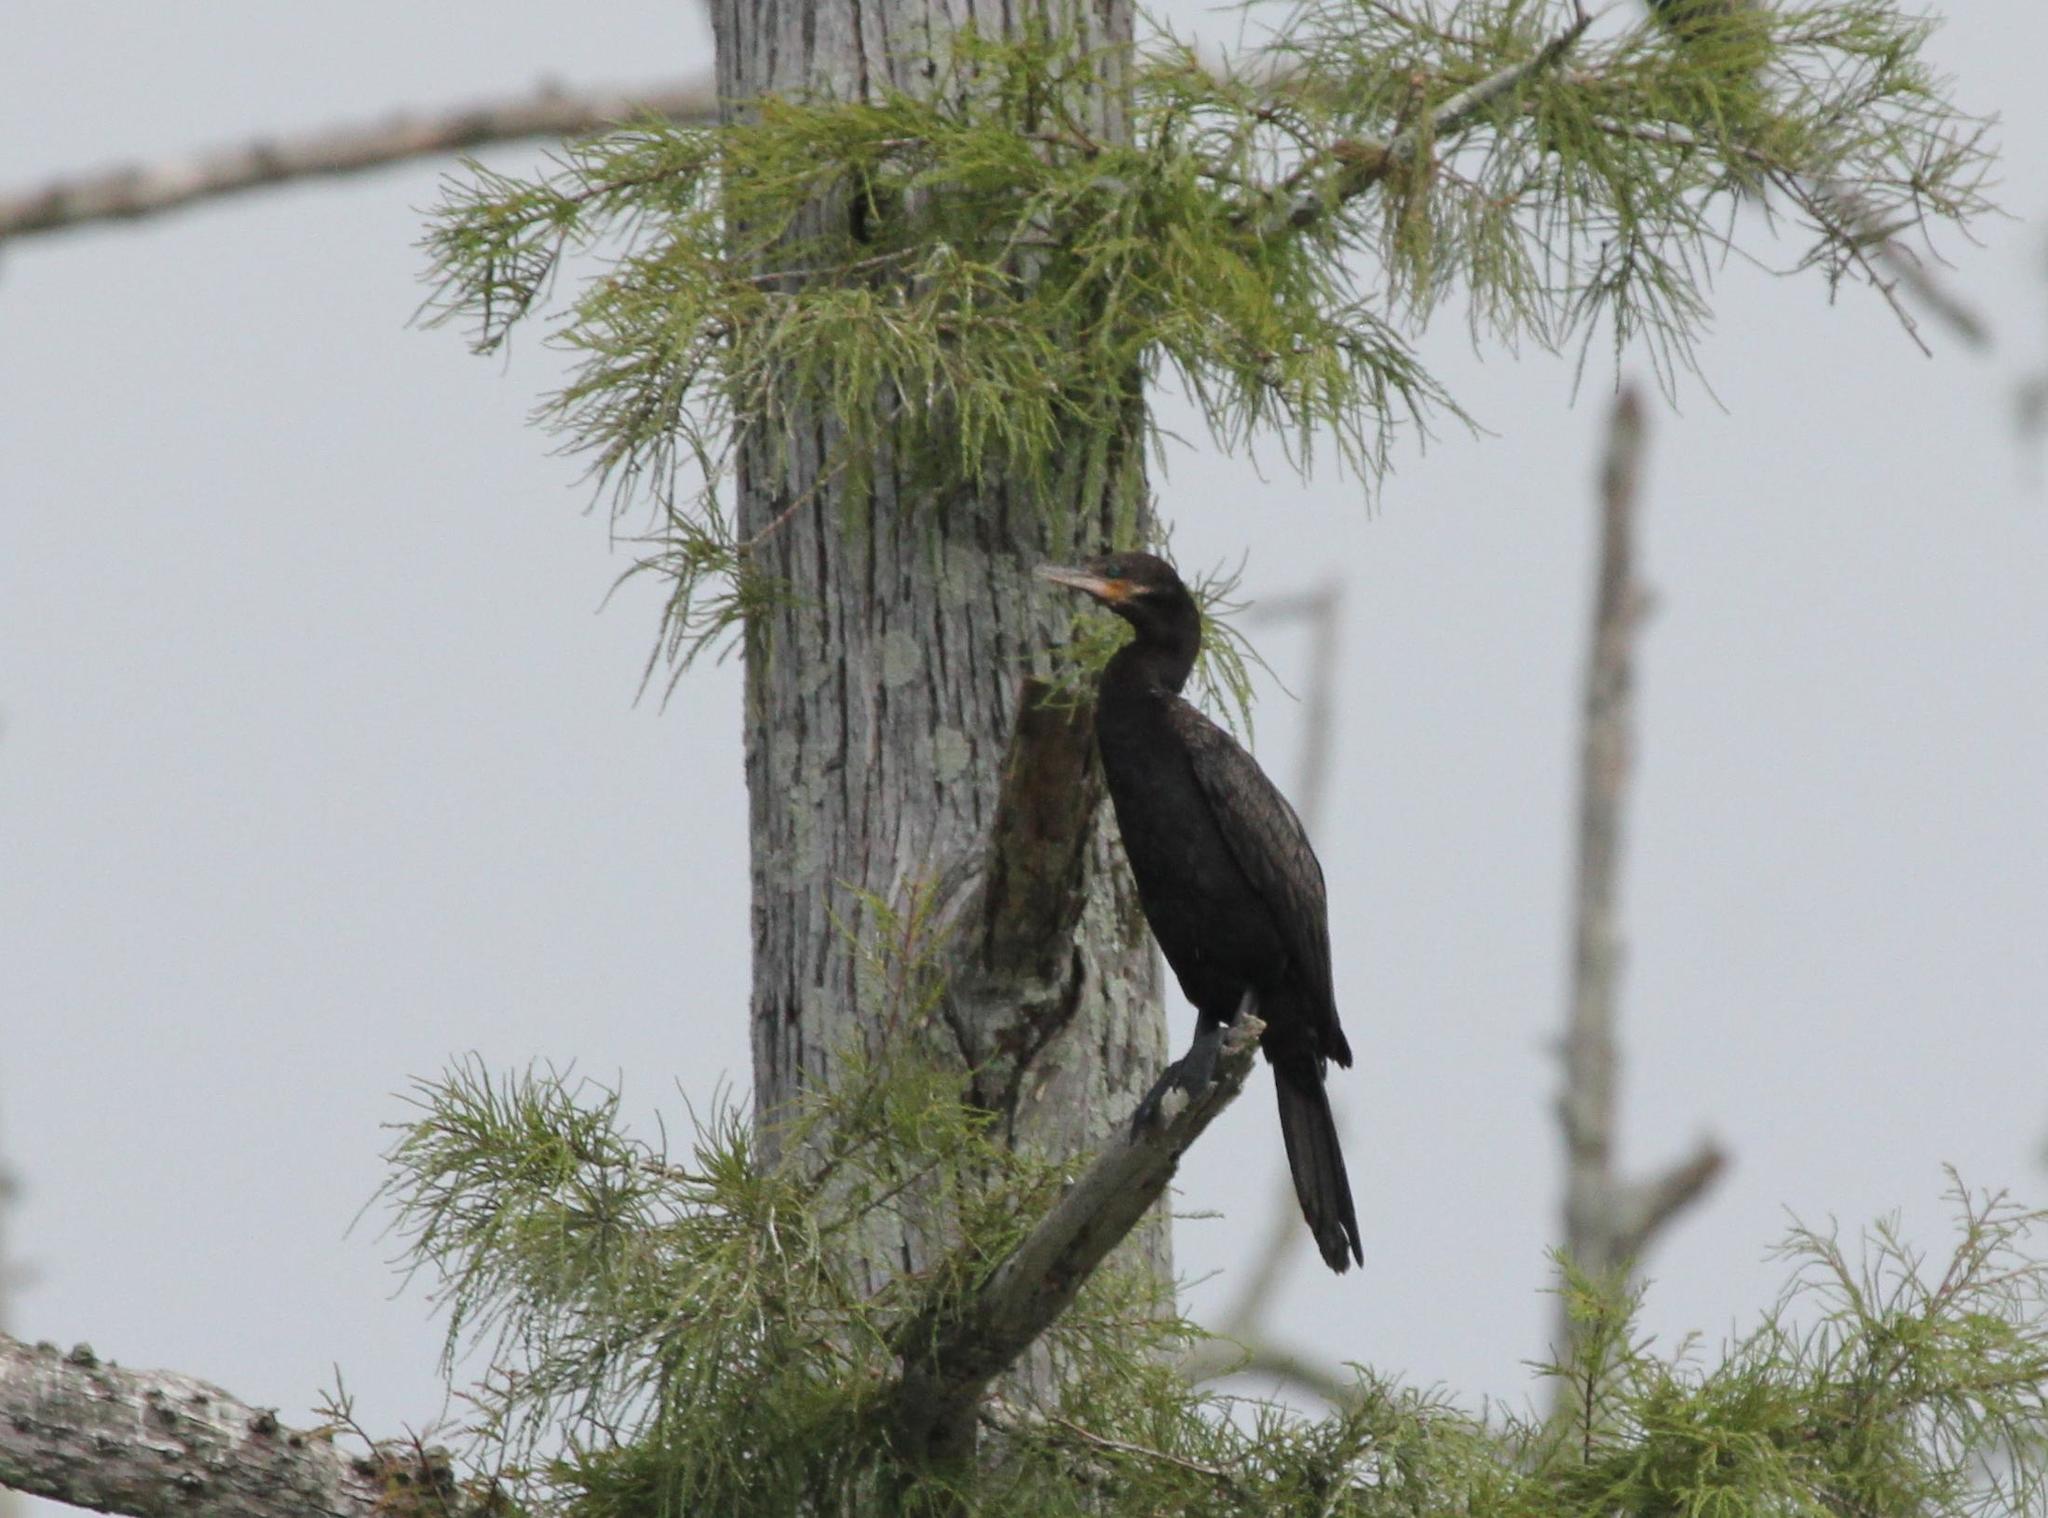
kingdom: Animalia
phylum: Chordata
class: Aves
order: Suliformes
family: Phalacrocoracidae
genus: Phalacrocorax
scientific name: Phalacrocorax brasilianus
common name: Neotropic cormorant
